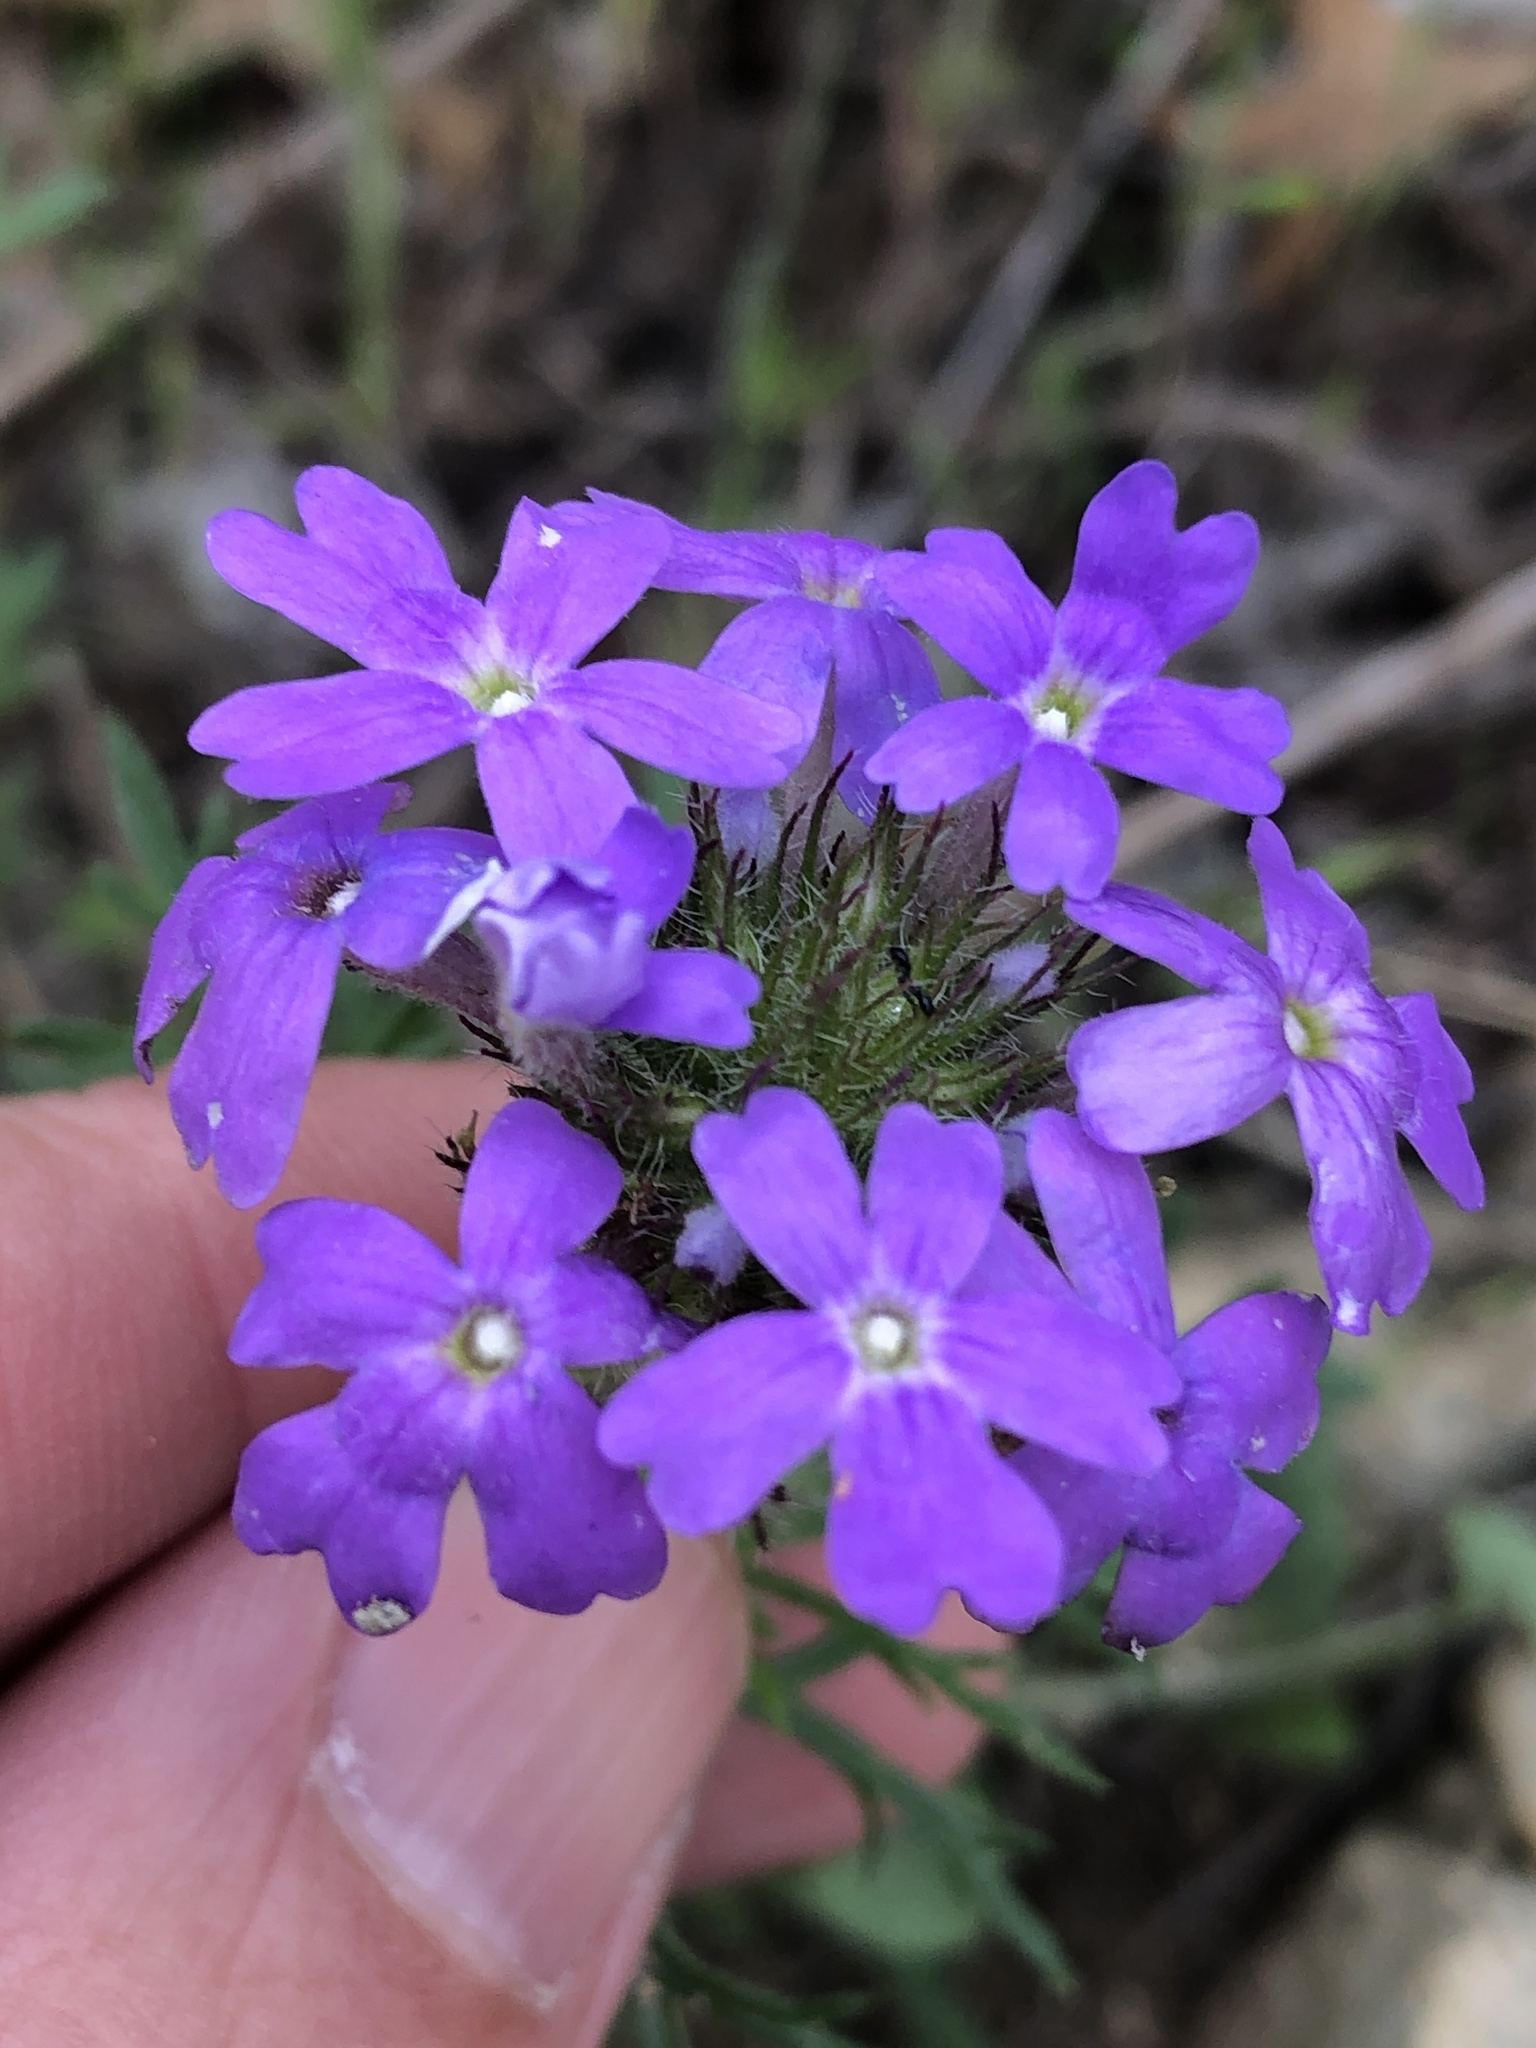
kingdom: Plantae
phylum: Tracheophyta
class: Magnoliopsida
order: Lamiales
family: Verbenaceae
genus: Verbena
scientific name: Verbena bipinnatifida
